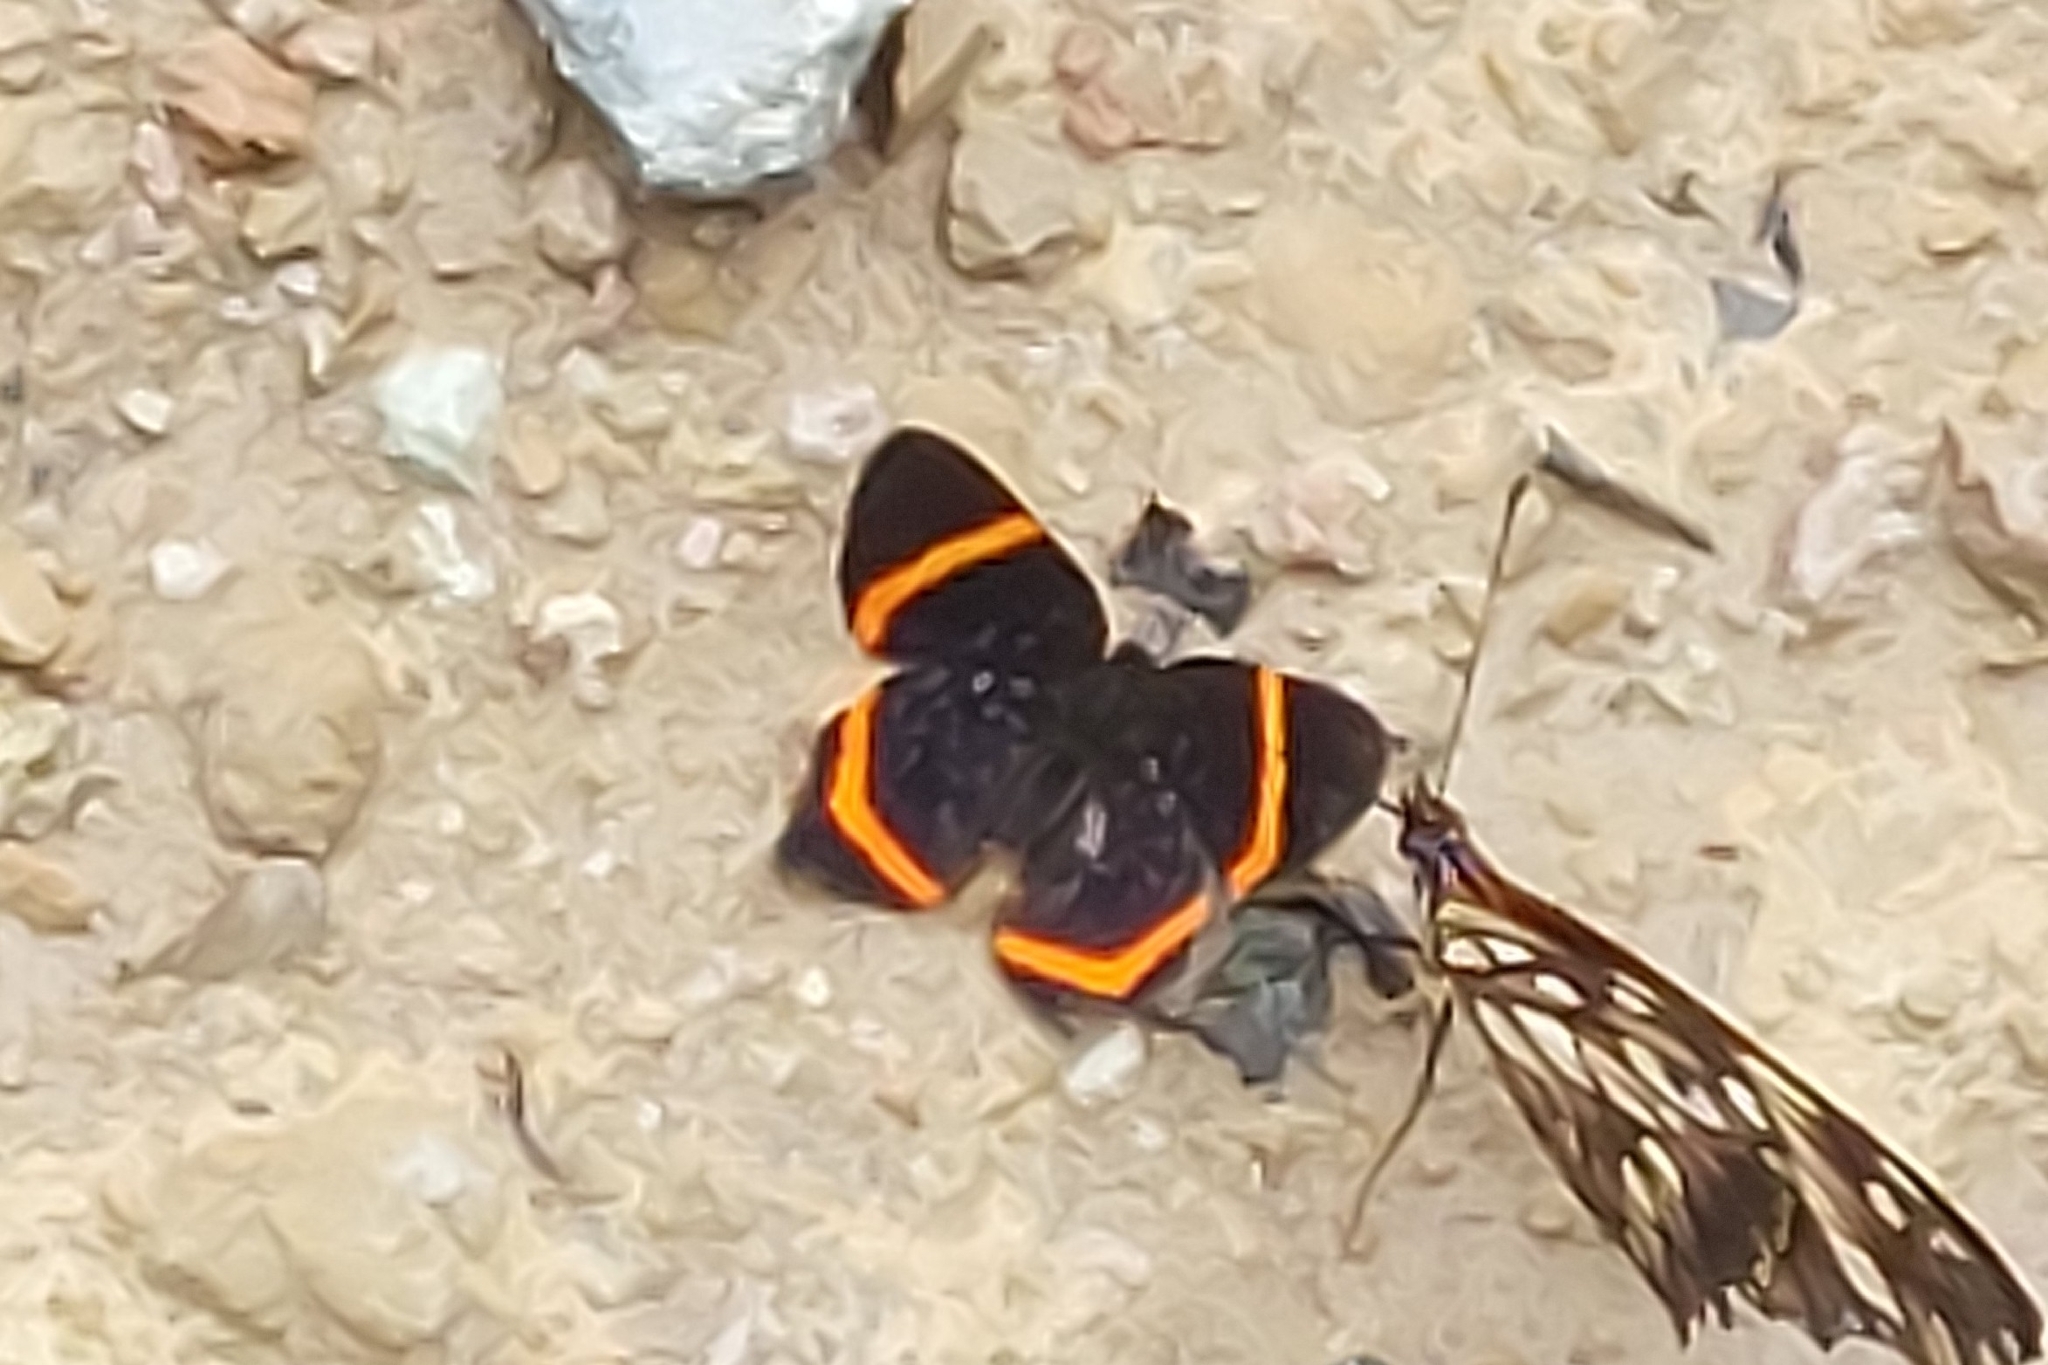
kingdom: Animalia
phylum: Arthropoda
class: Insecta
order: Lepidoptera
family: Riodinidae
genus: Riodina
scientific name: Riodina lysippus
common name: Lysippus metalmark
